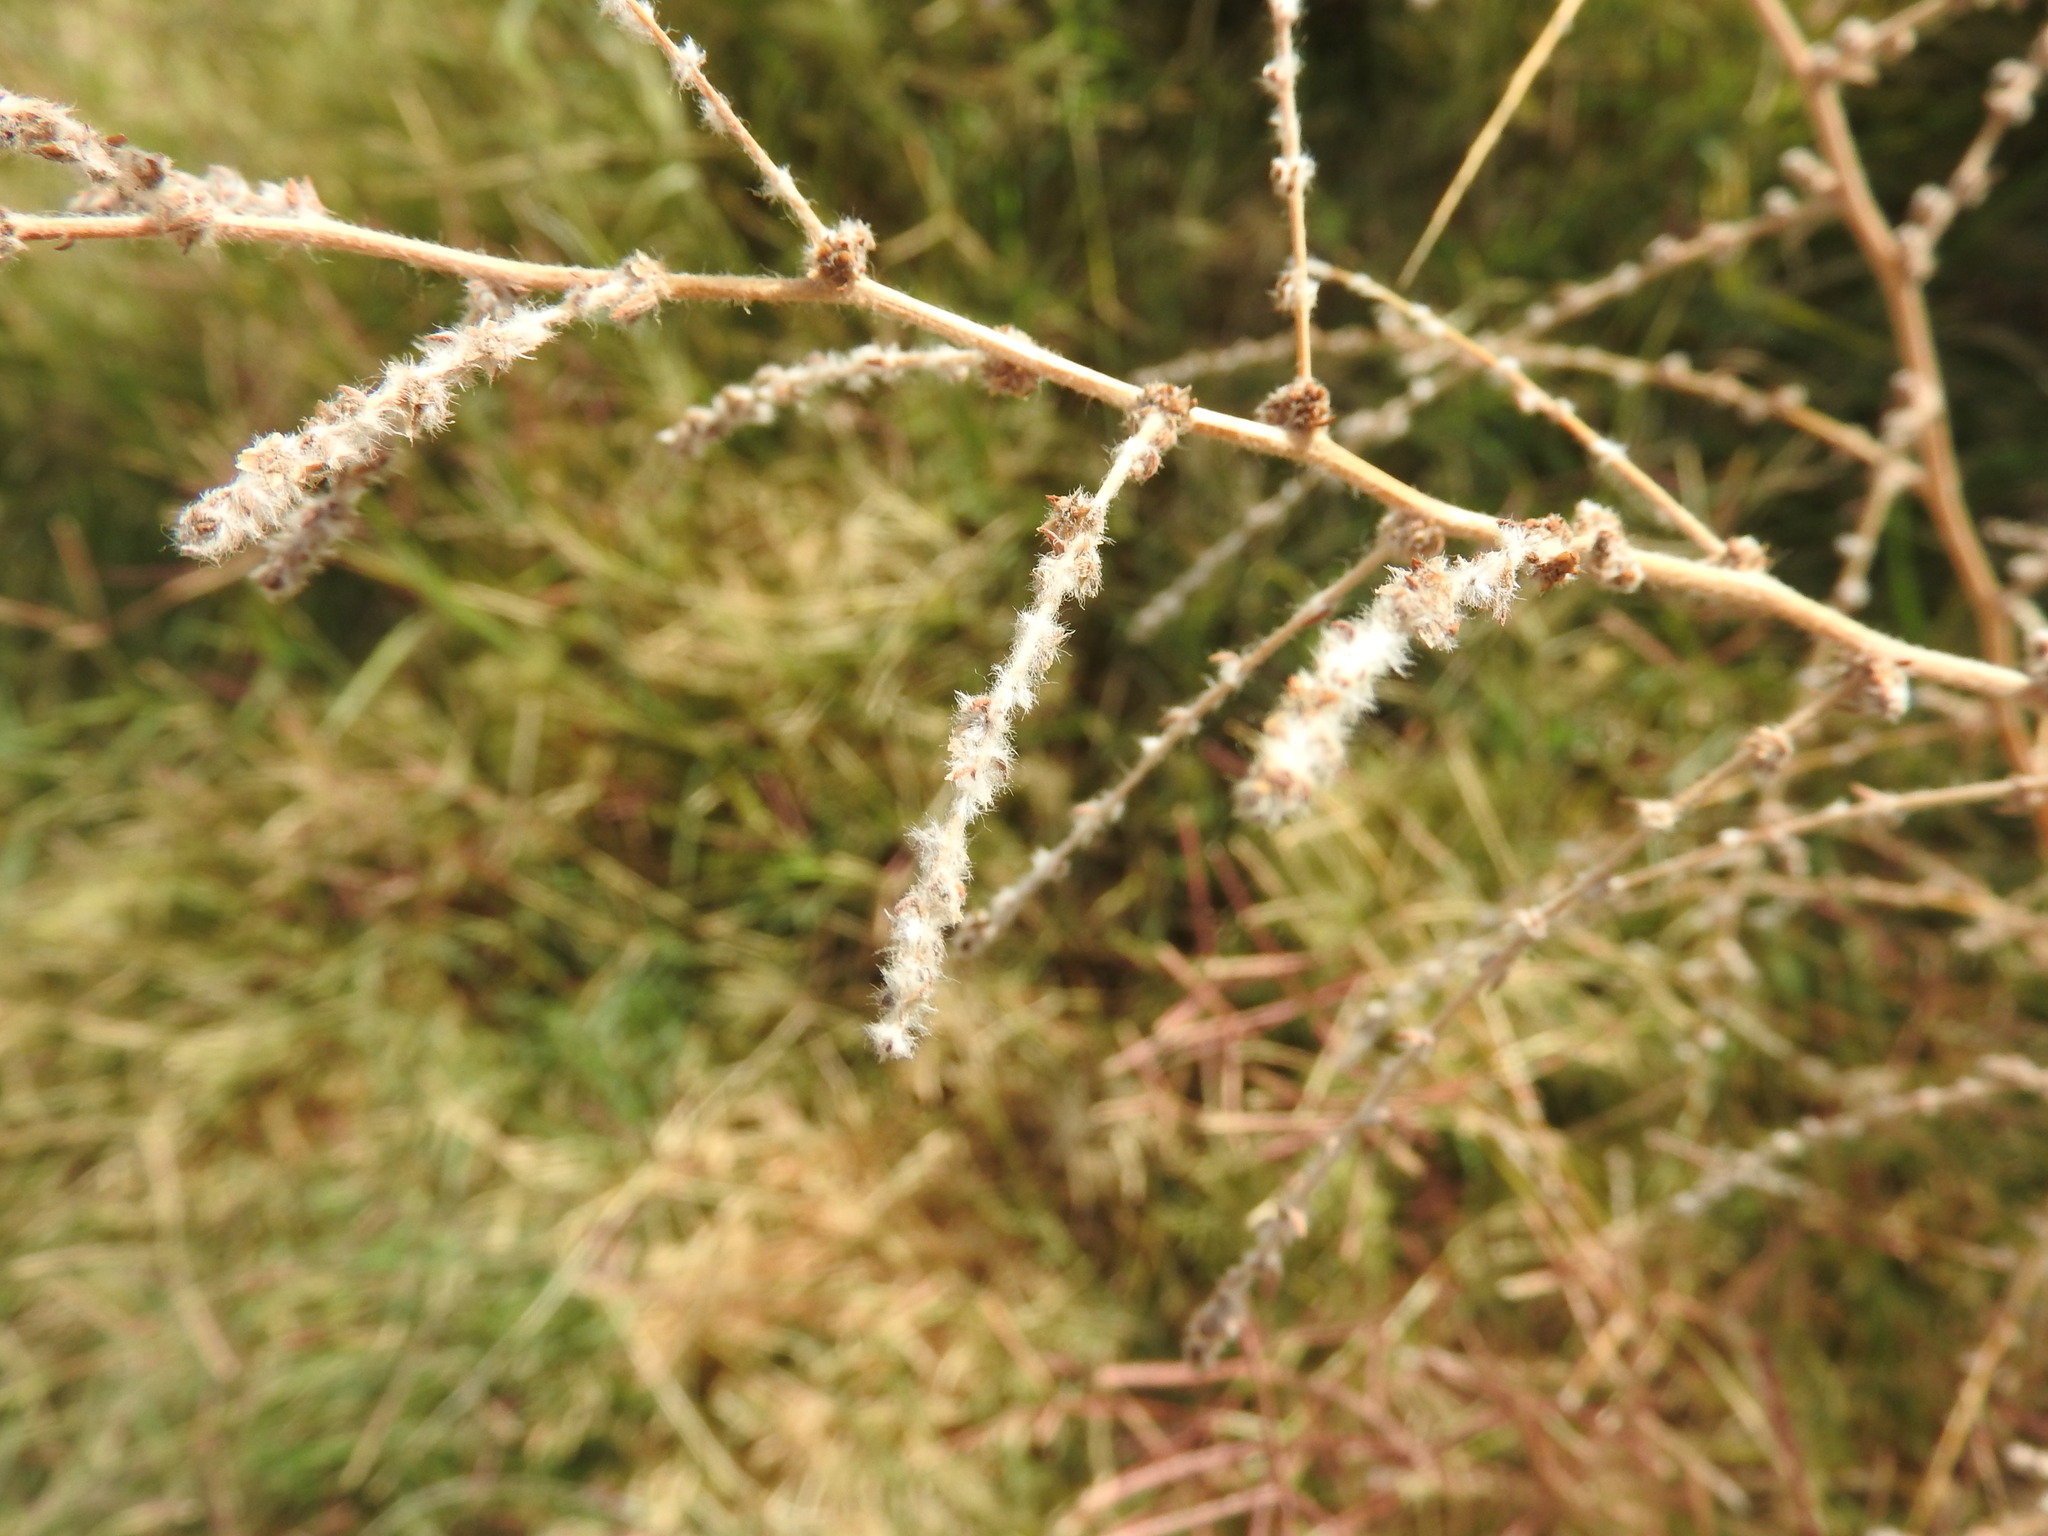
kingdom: Plantae
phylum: Tracheophyta
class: Magnoliopsida
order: Caryophyllales
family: Amaranthaceae
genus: Bassia
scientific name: Bassia indica
